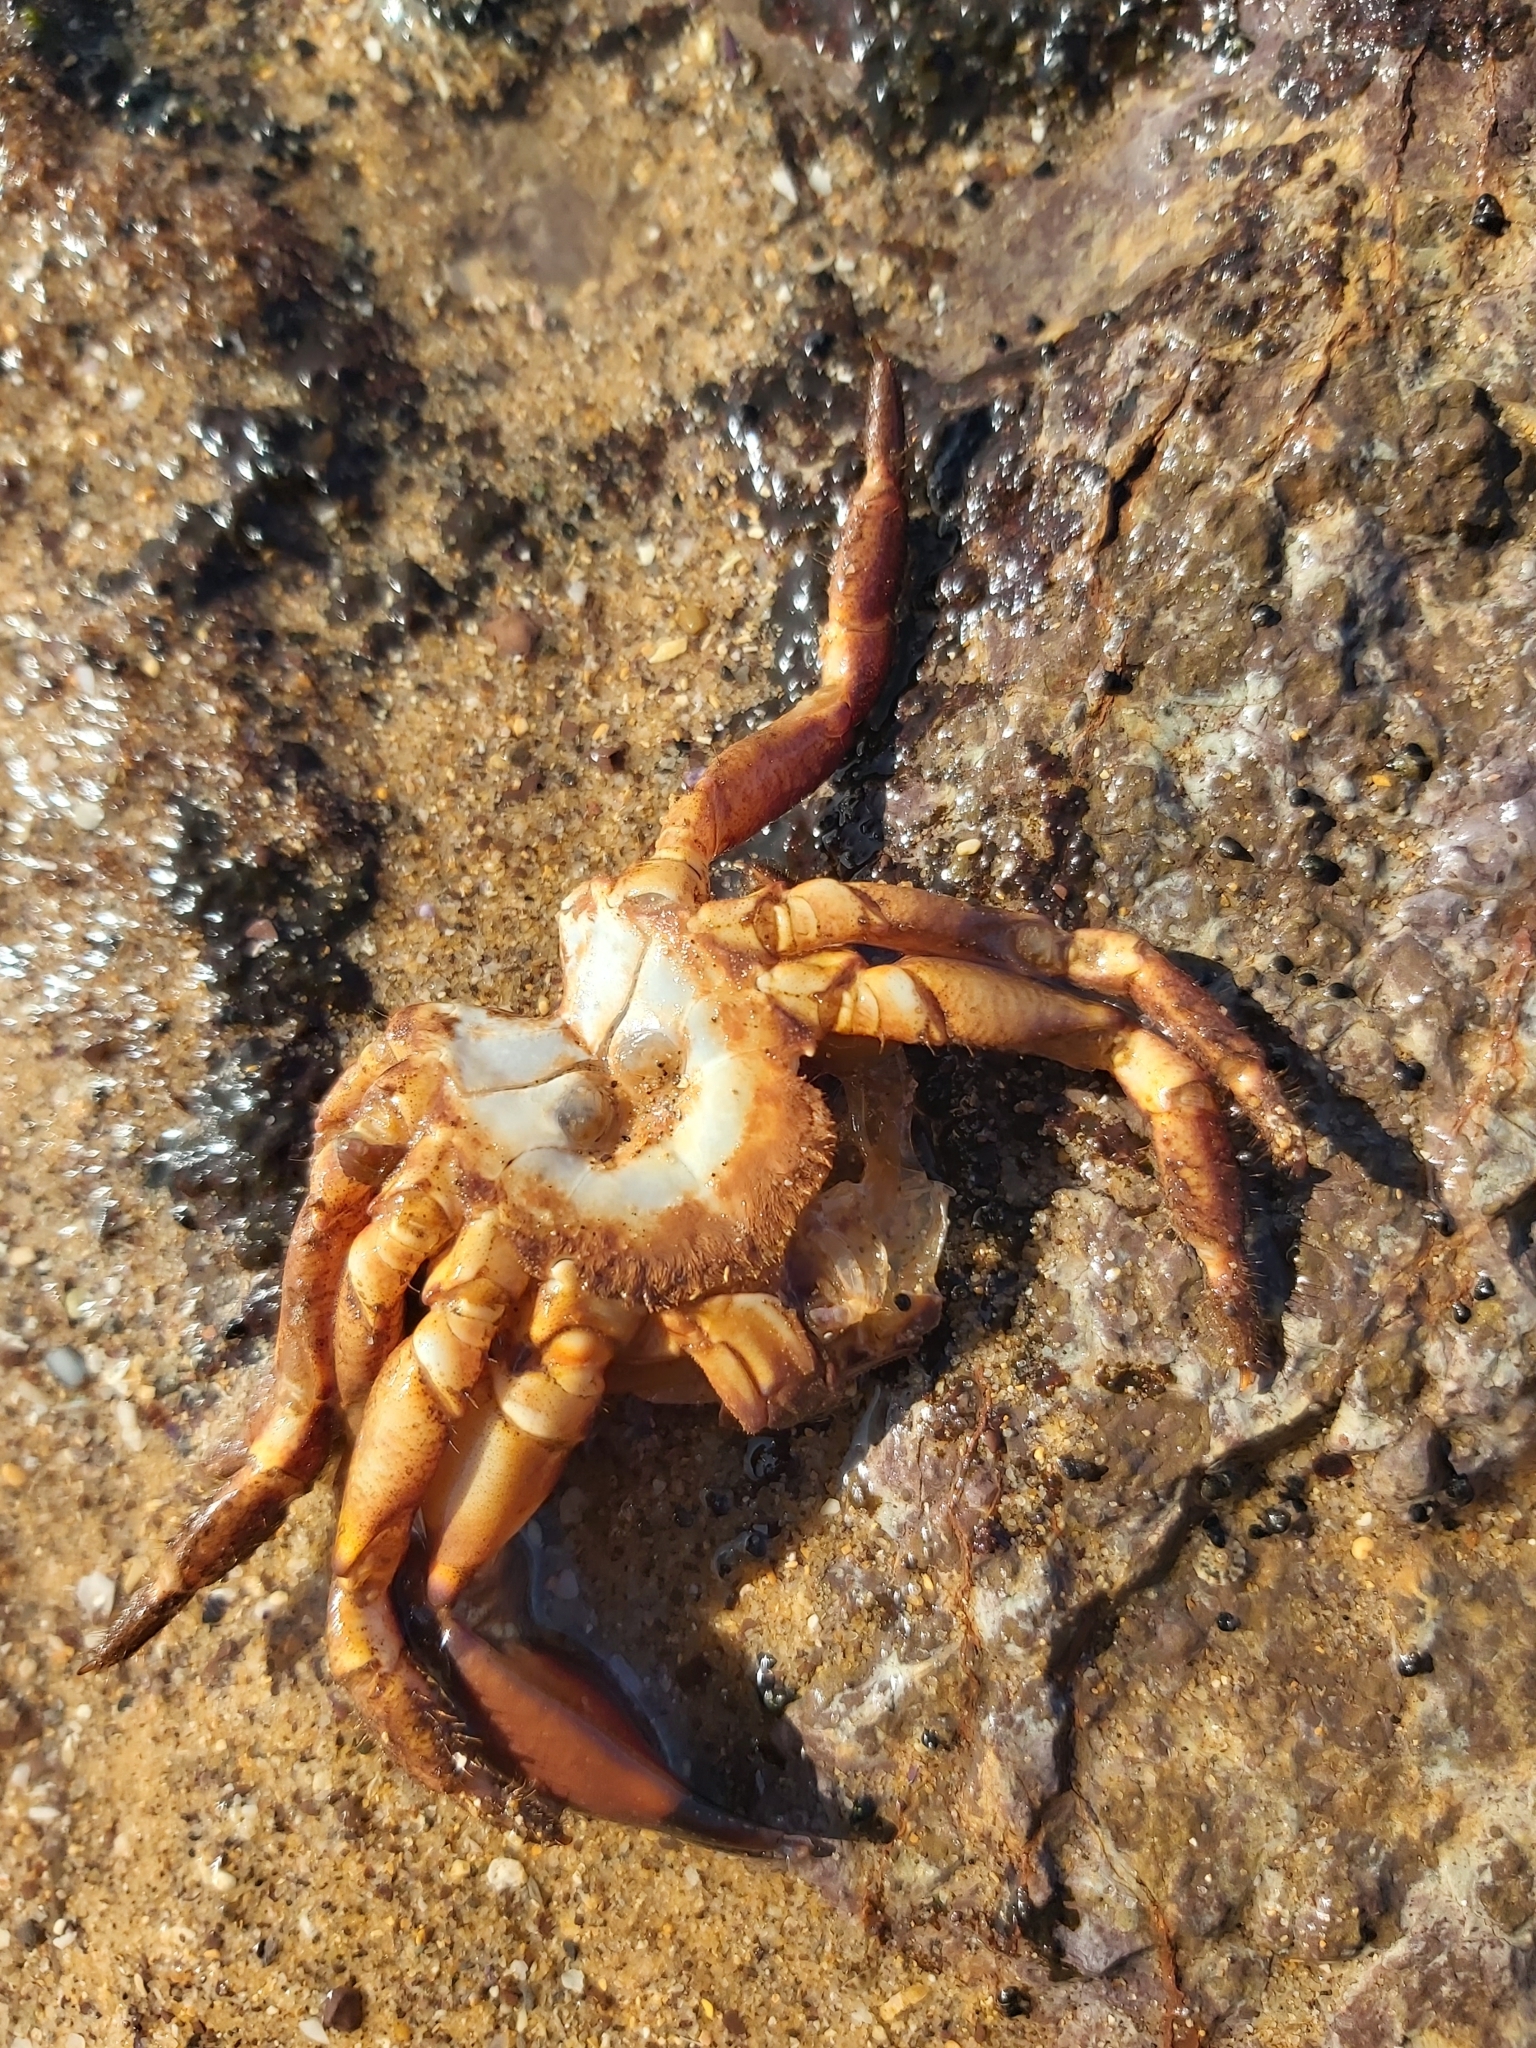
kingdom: Animalia
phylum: Arthropoda
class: Malacostraca
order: Decapoda
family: Oziidae
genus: Ozius
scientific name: Ozius truncatus
